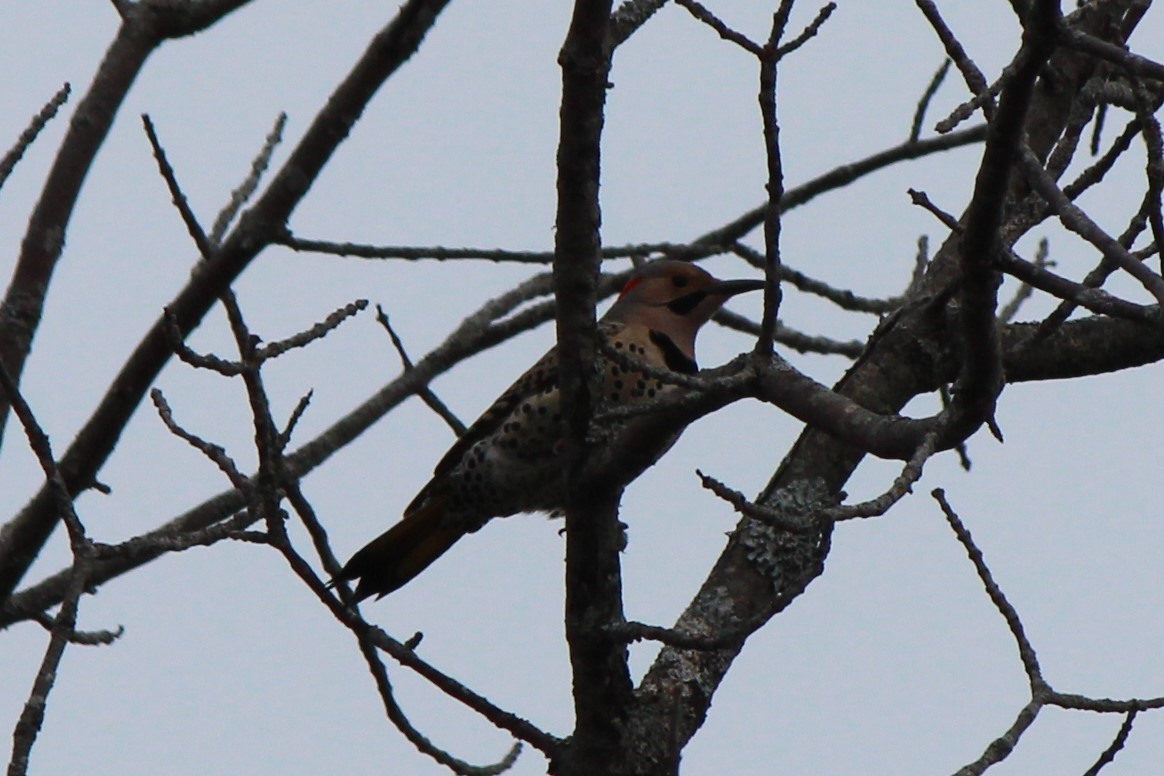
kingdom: Animalia
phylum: Chordata
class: Aves
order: Piciformes
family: Picidae
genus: Colaptes
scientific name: Colaptes auratus
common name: Northern flicker
